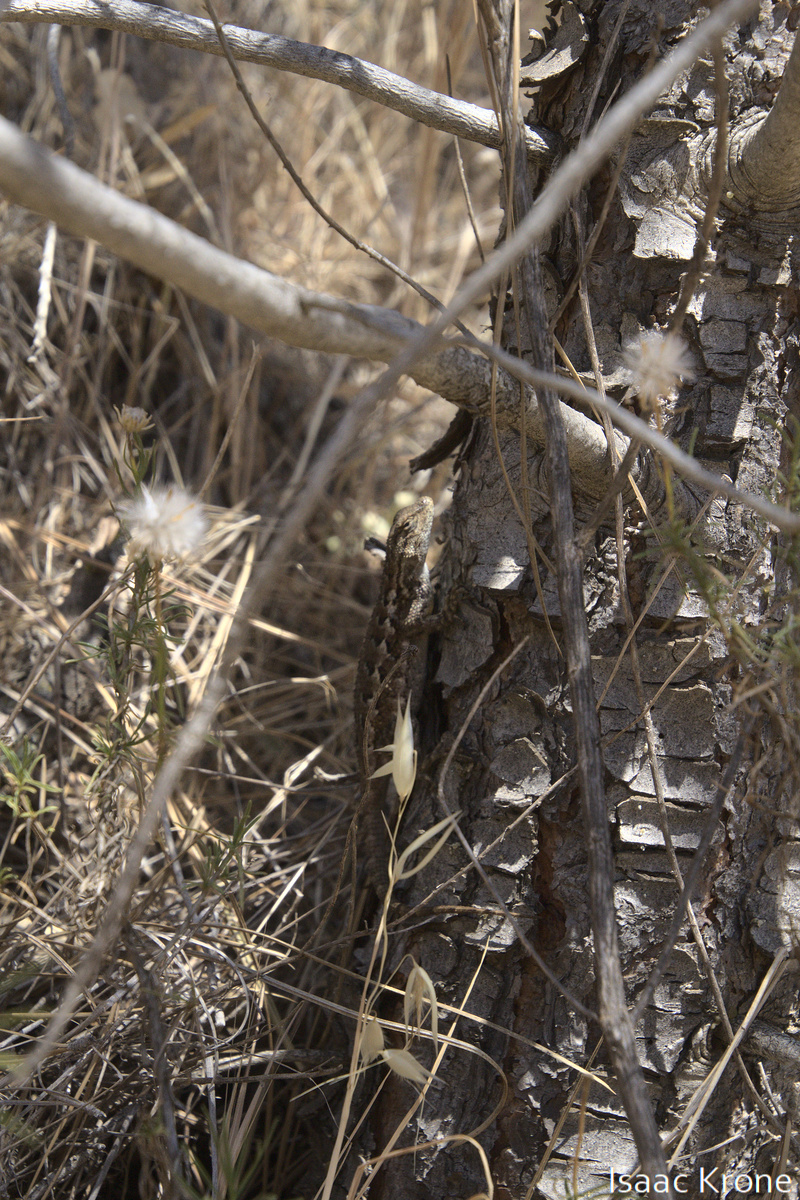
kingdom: Animalia
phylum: Chordata
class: Squamata
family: Phrynosomatidae
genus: Sceloporus
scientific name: Sceloporus occidentalis
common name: Western fence lizard
